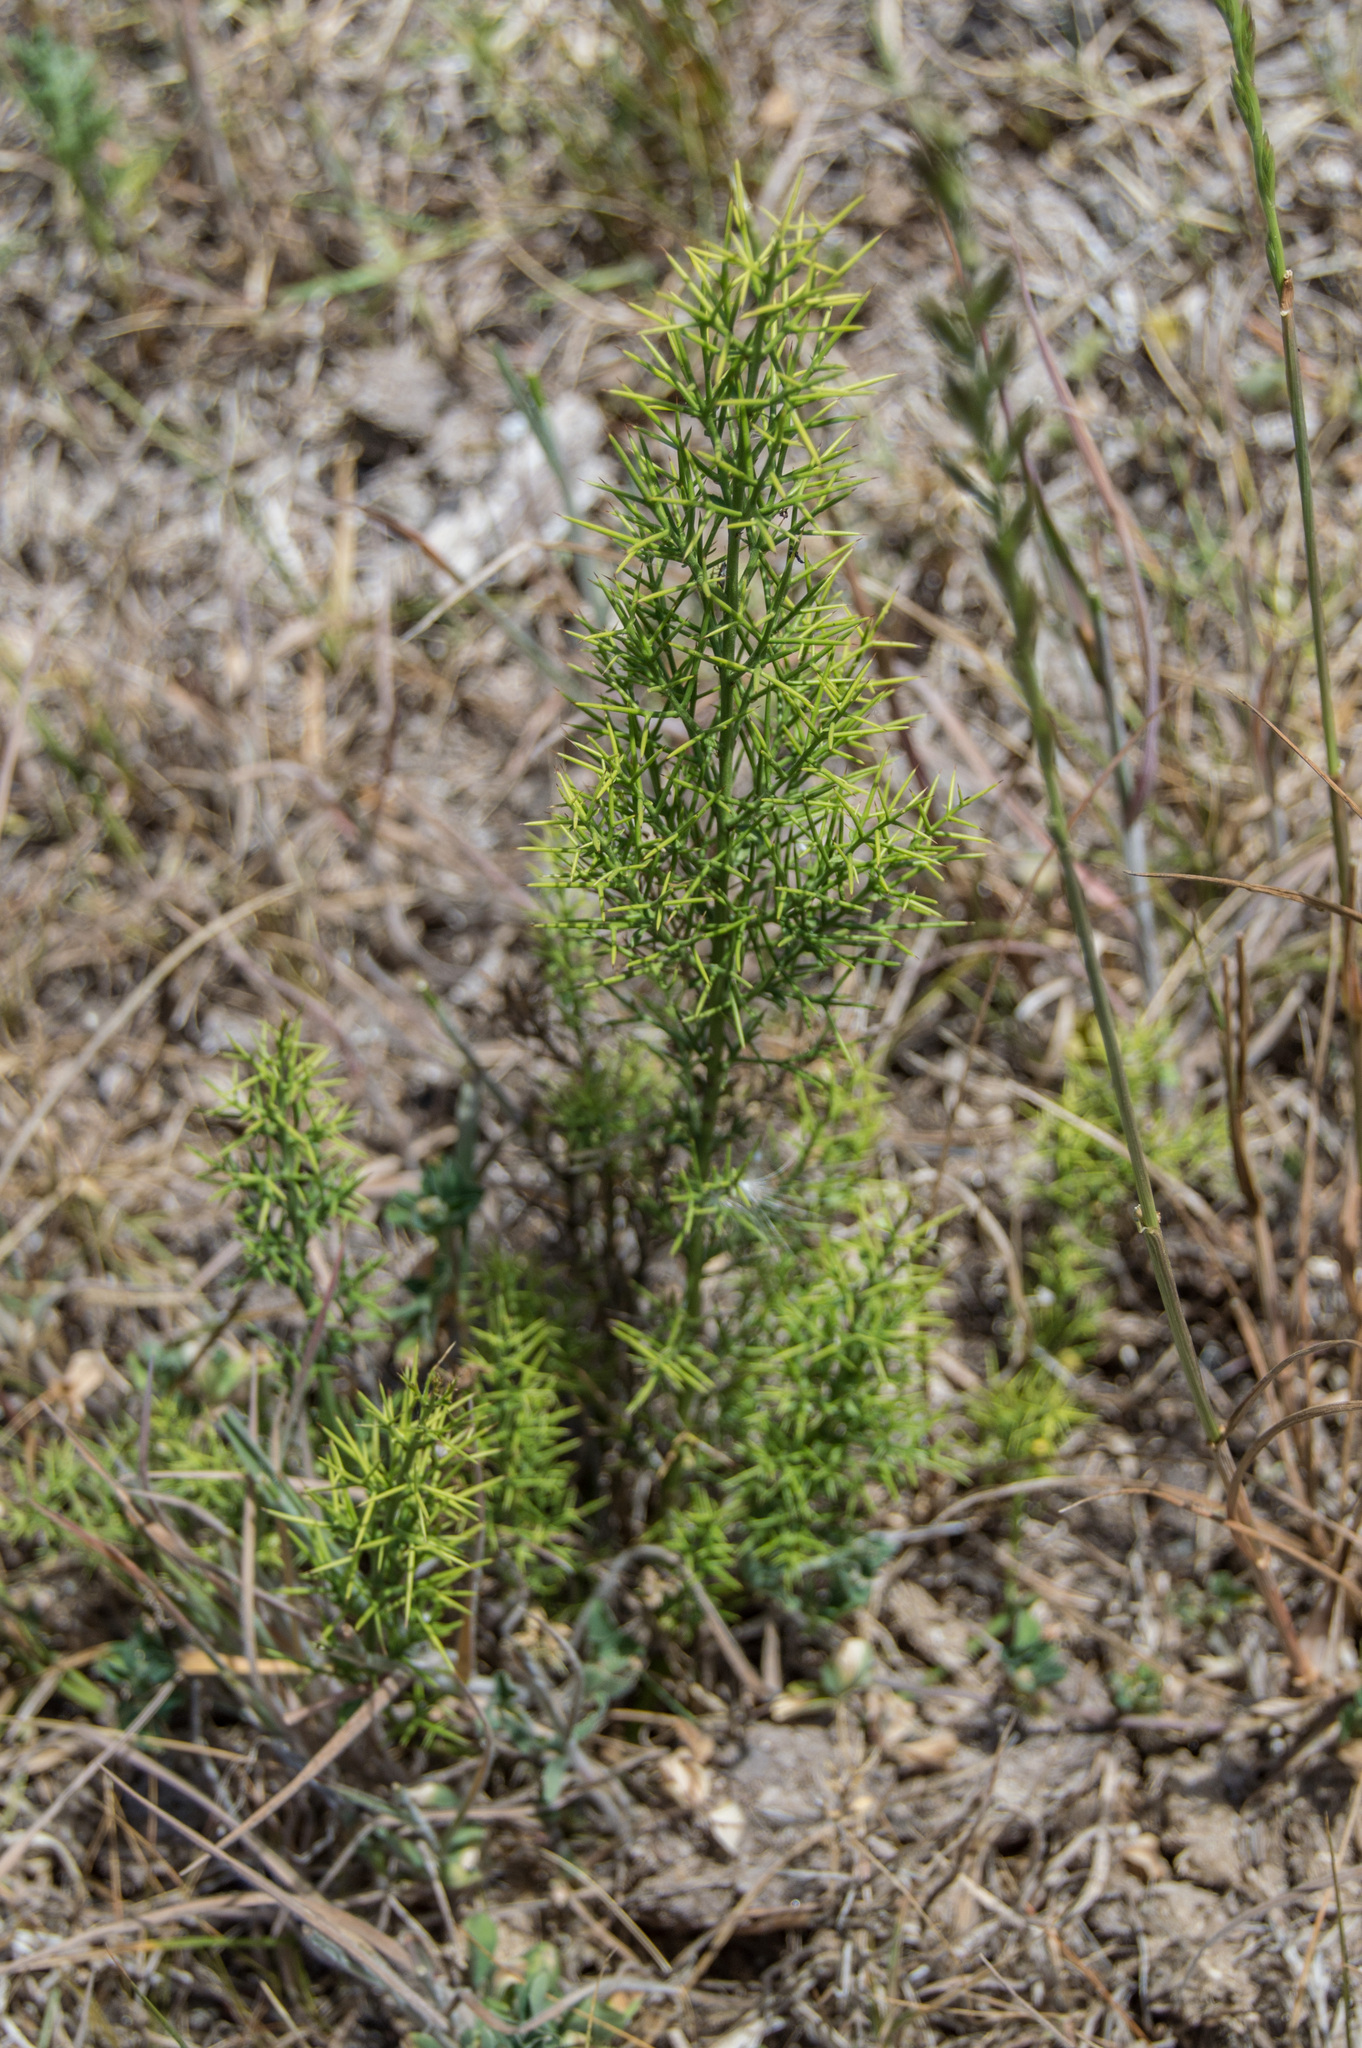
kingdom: Plantae
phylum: Tracheophyta
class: Magnoliopsida
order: Rosales
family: Rhamnaceae
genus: Colletia
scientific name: Colletia spinosissima
